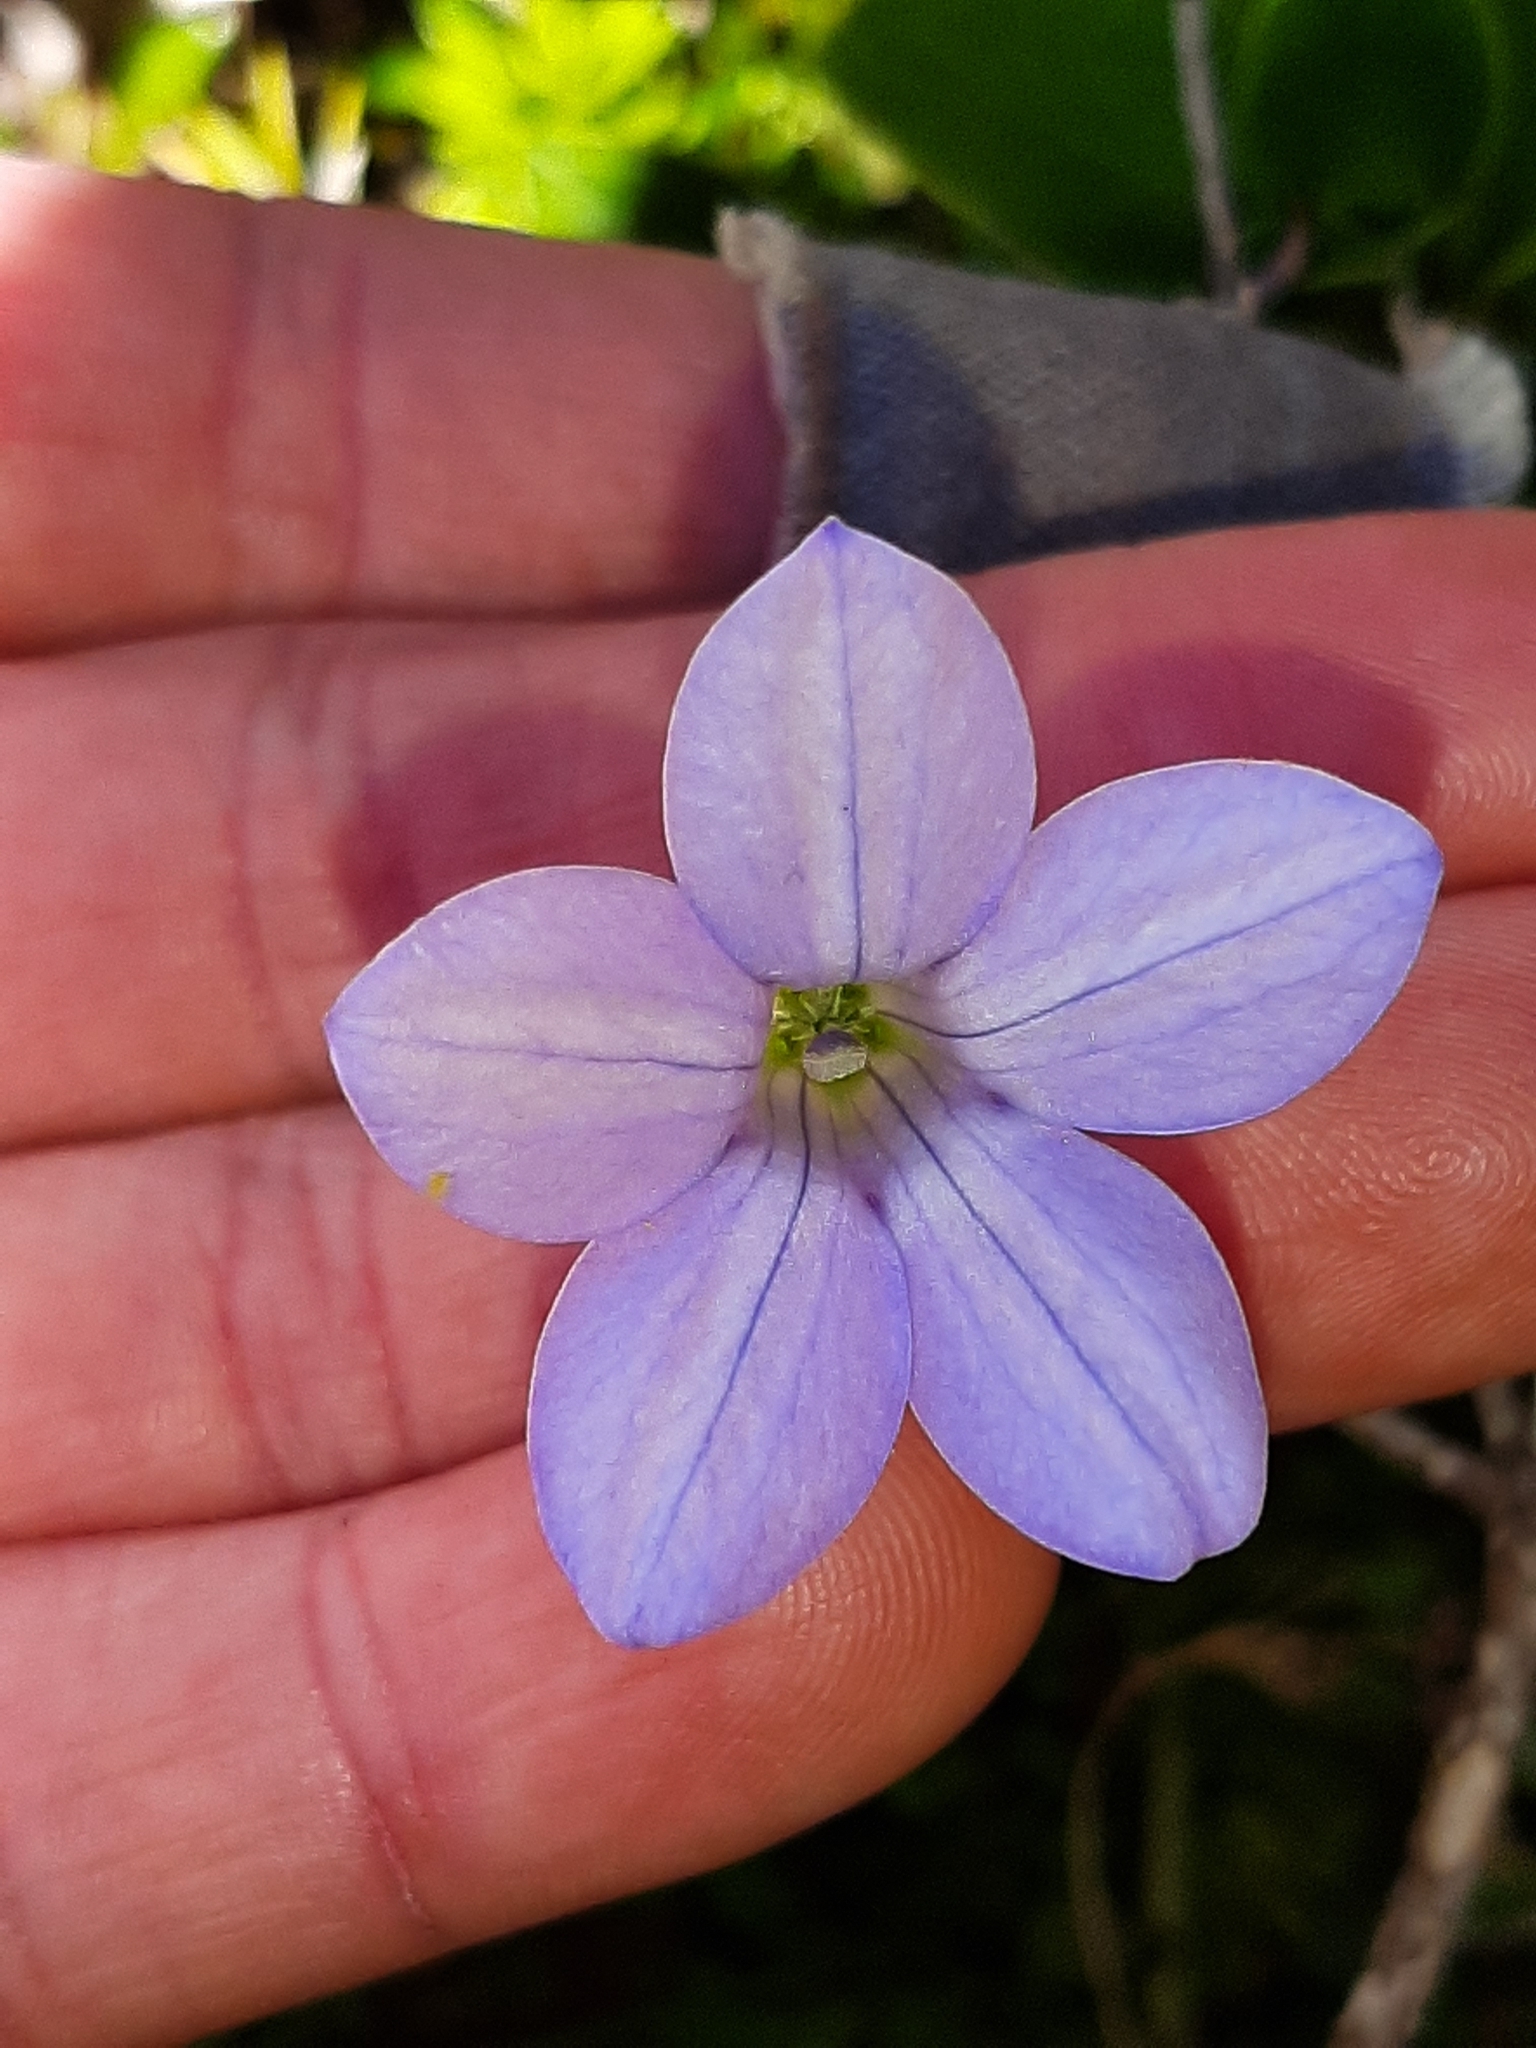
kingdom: Plantae
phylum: Tracheophyta
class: Magnoliopsida
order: Asterales
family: Campanulaceae
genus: Wahlenbergia
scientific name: Wahlenbergia albomarginata
